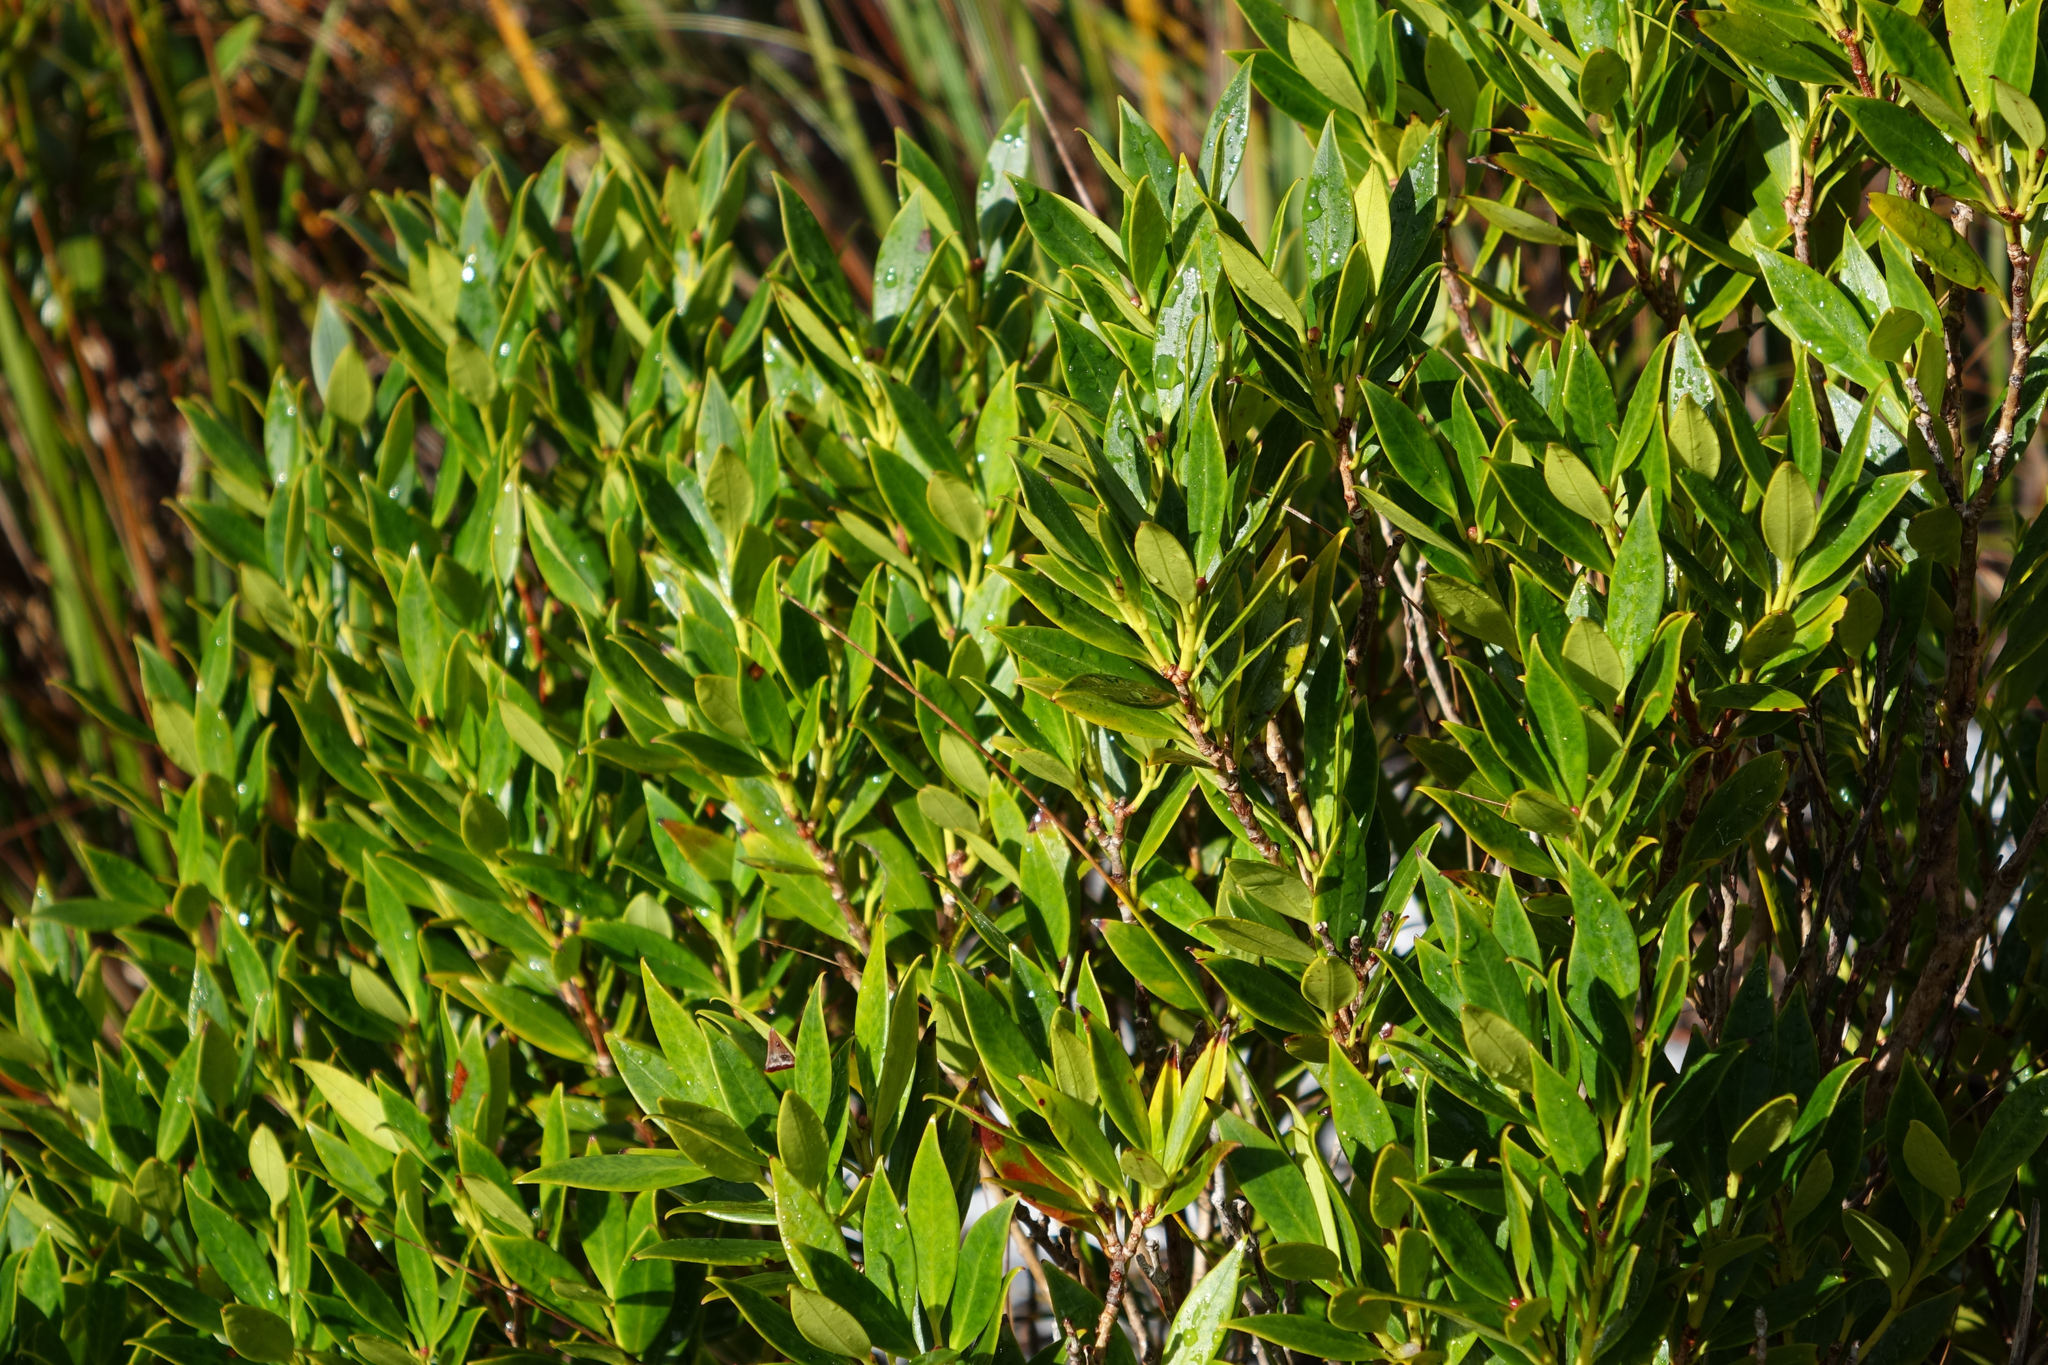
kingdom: Plantae
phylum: Tracheophyta
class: Magnoliopsida
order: Myrtales
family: Myrtaceae
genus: Metrosideros
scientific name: Metrosideros umbellata
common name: Southern rata
